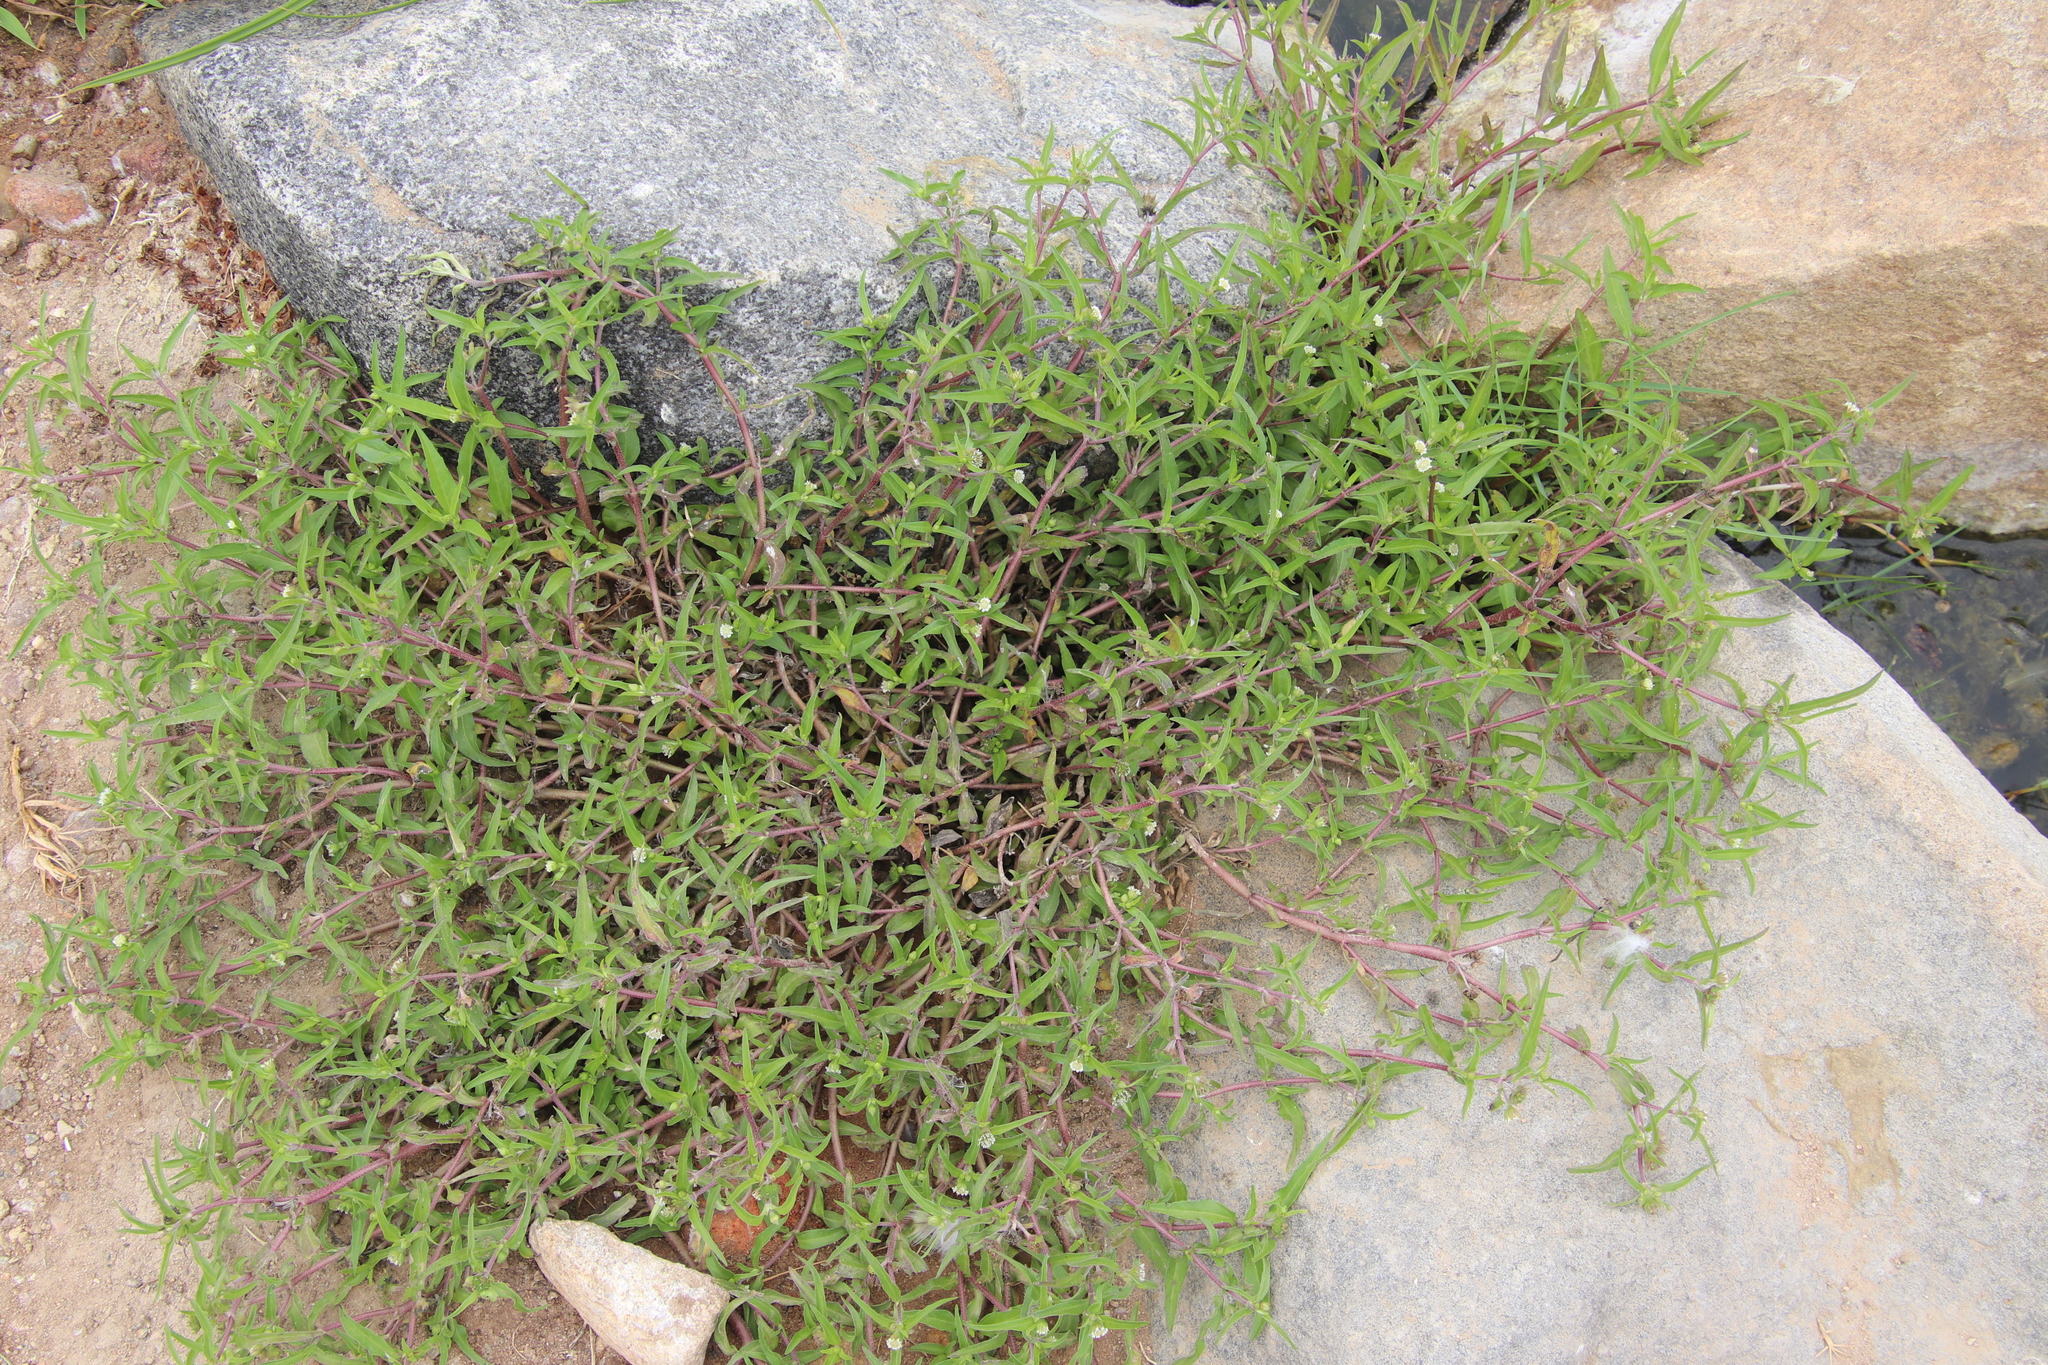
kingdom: Plantae
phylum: Tracheophyta
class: Magnoliopsida
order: Asterales
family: Asteraceae
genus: Eclipta
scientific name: Eclipta prostrata
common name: False daisy
